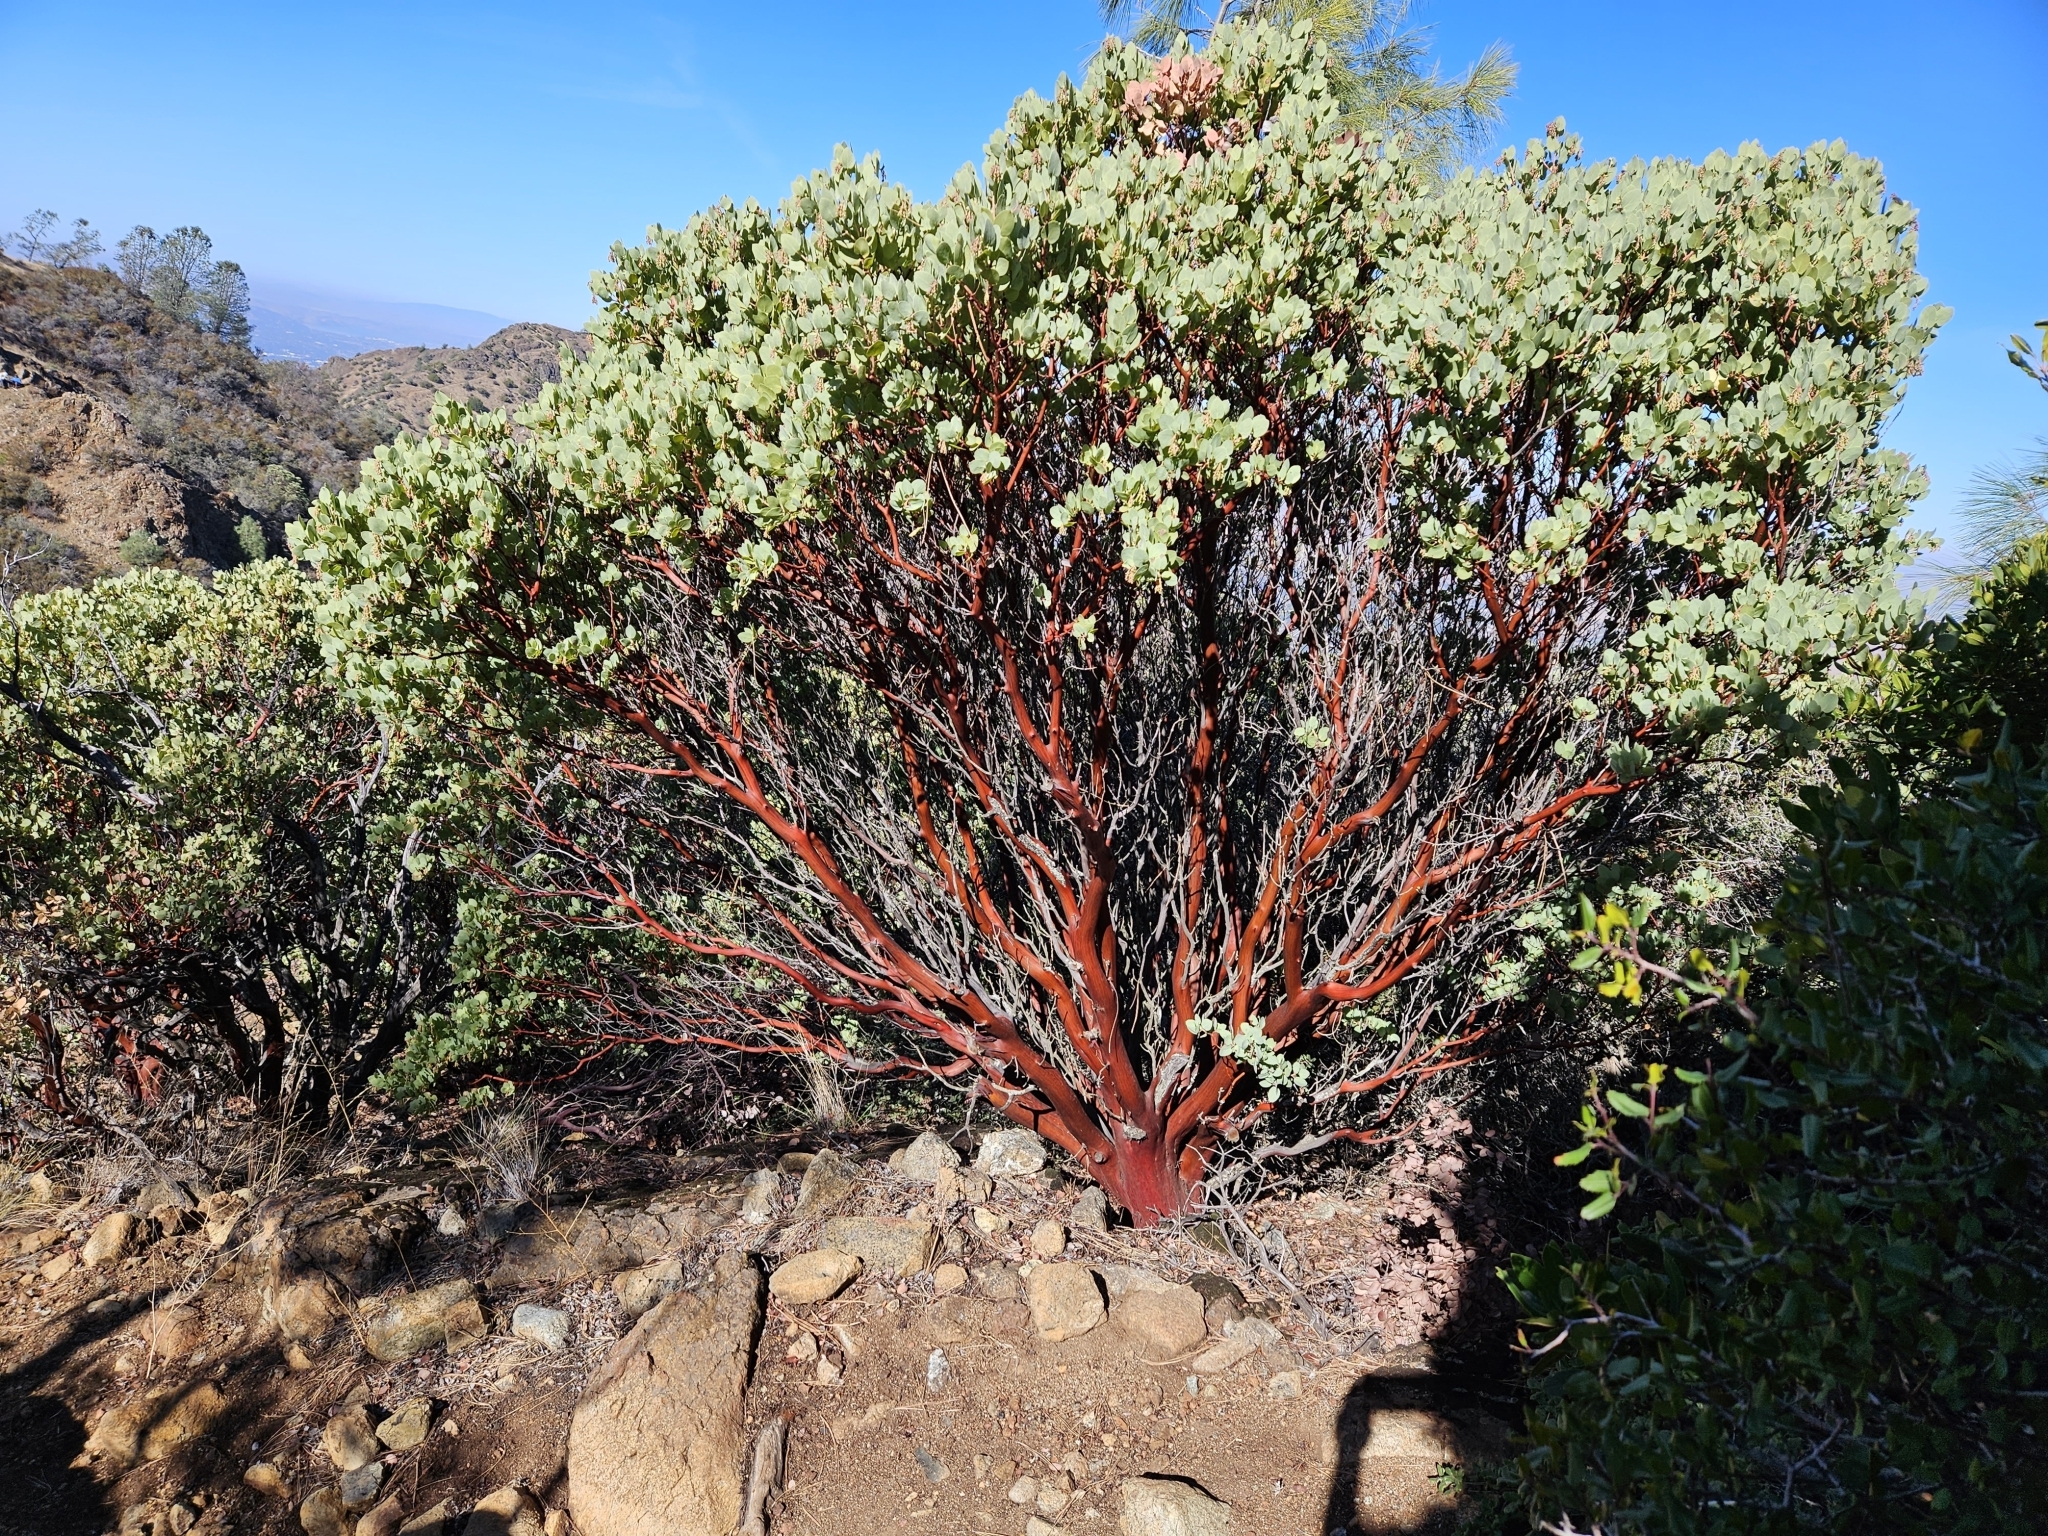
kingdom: Plantae
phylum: Tracheophyta
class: Magnoliopsida
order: Ericales
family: Ericaceae
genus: Arctostaphylos
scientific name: Arctostaphylos glauca
